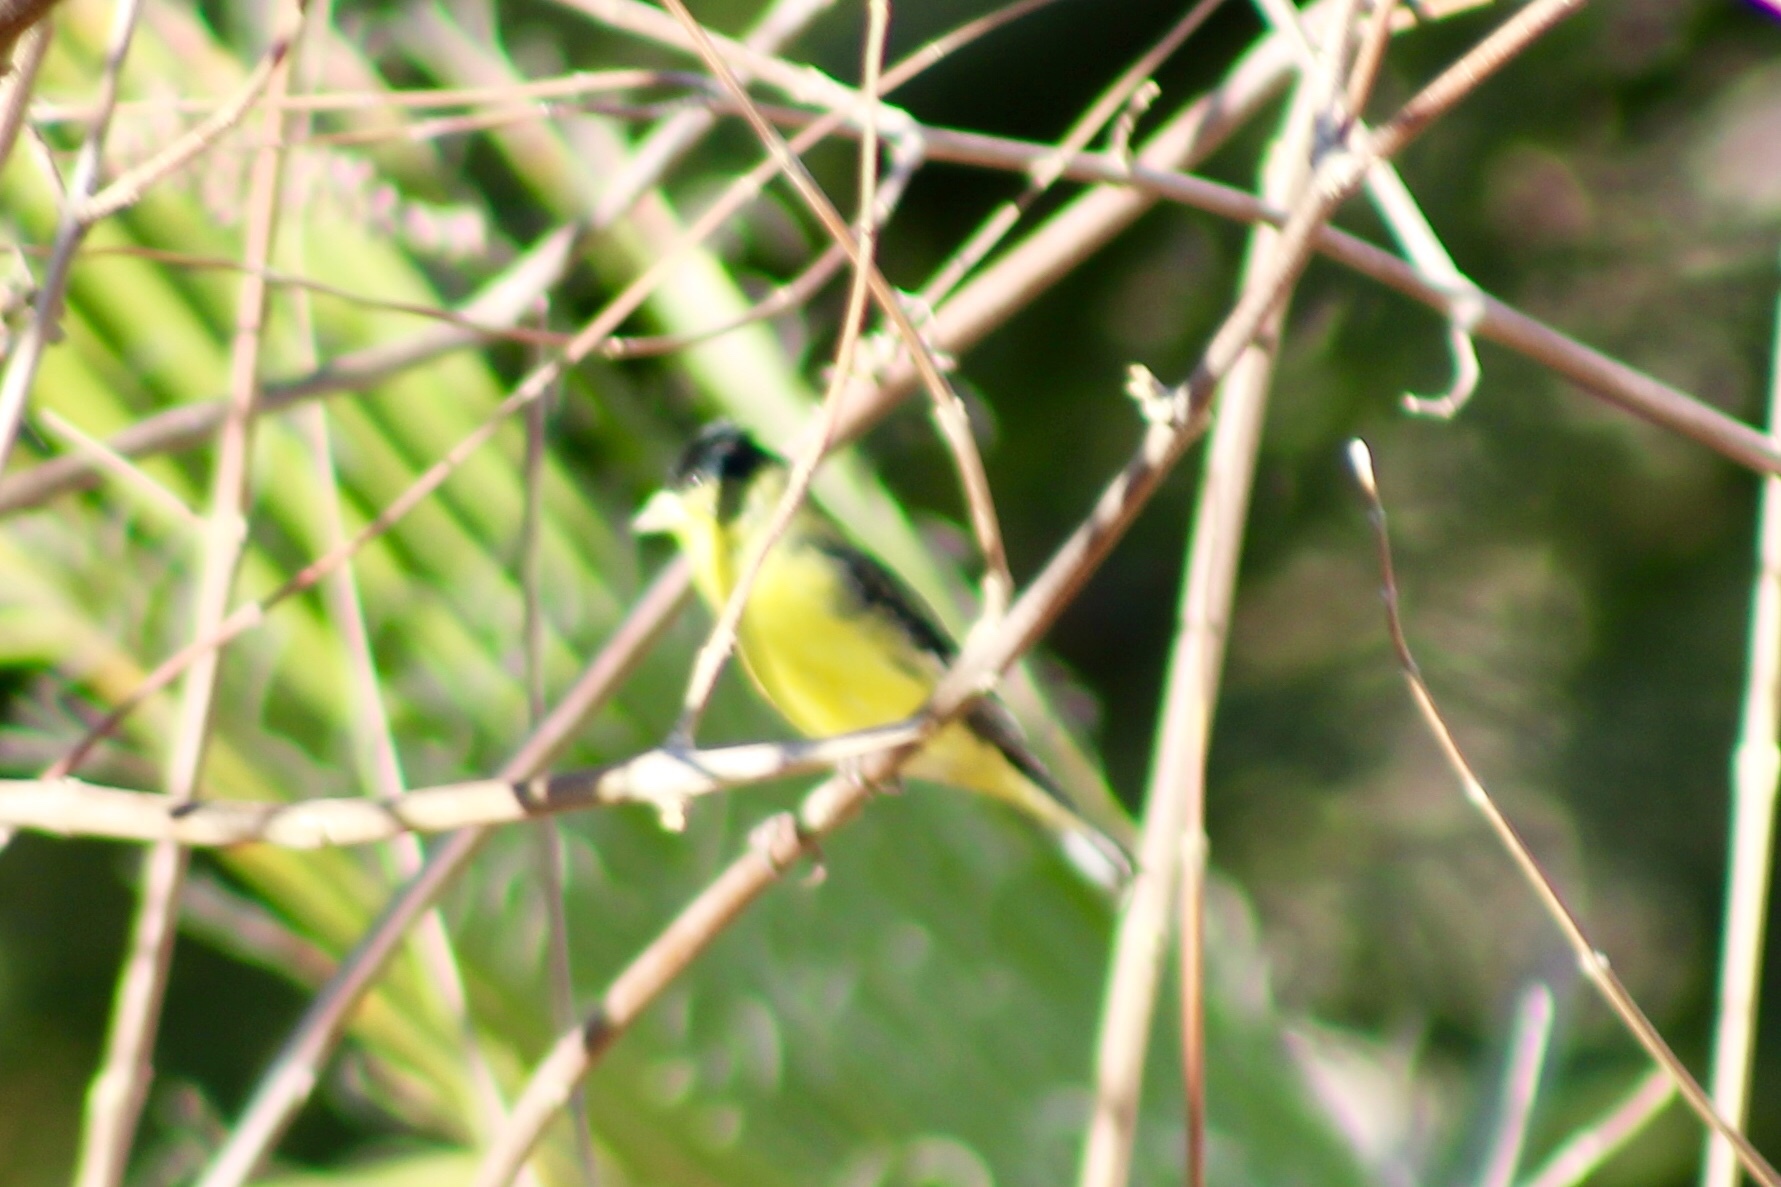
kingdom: Animalia
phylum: Chordata
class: Aves
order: Passeriformes
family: Fringillidae
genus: Spinus
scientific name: Spinus psaltria
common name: Lesser goldfinch
